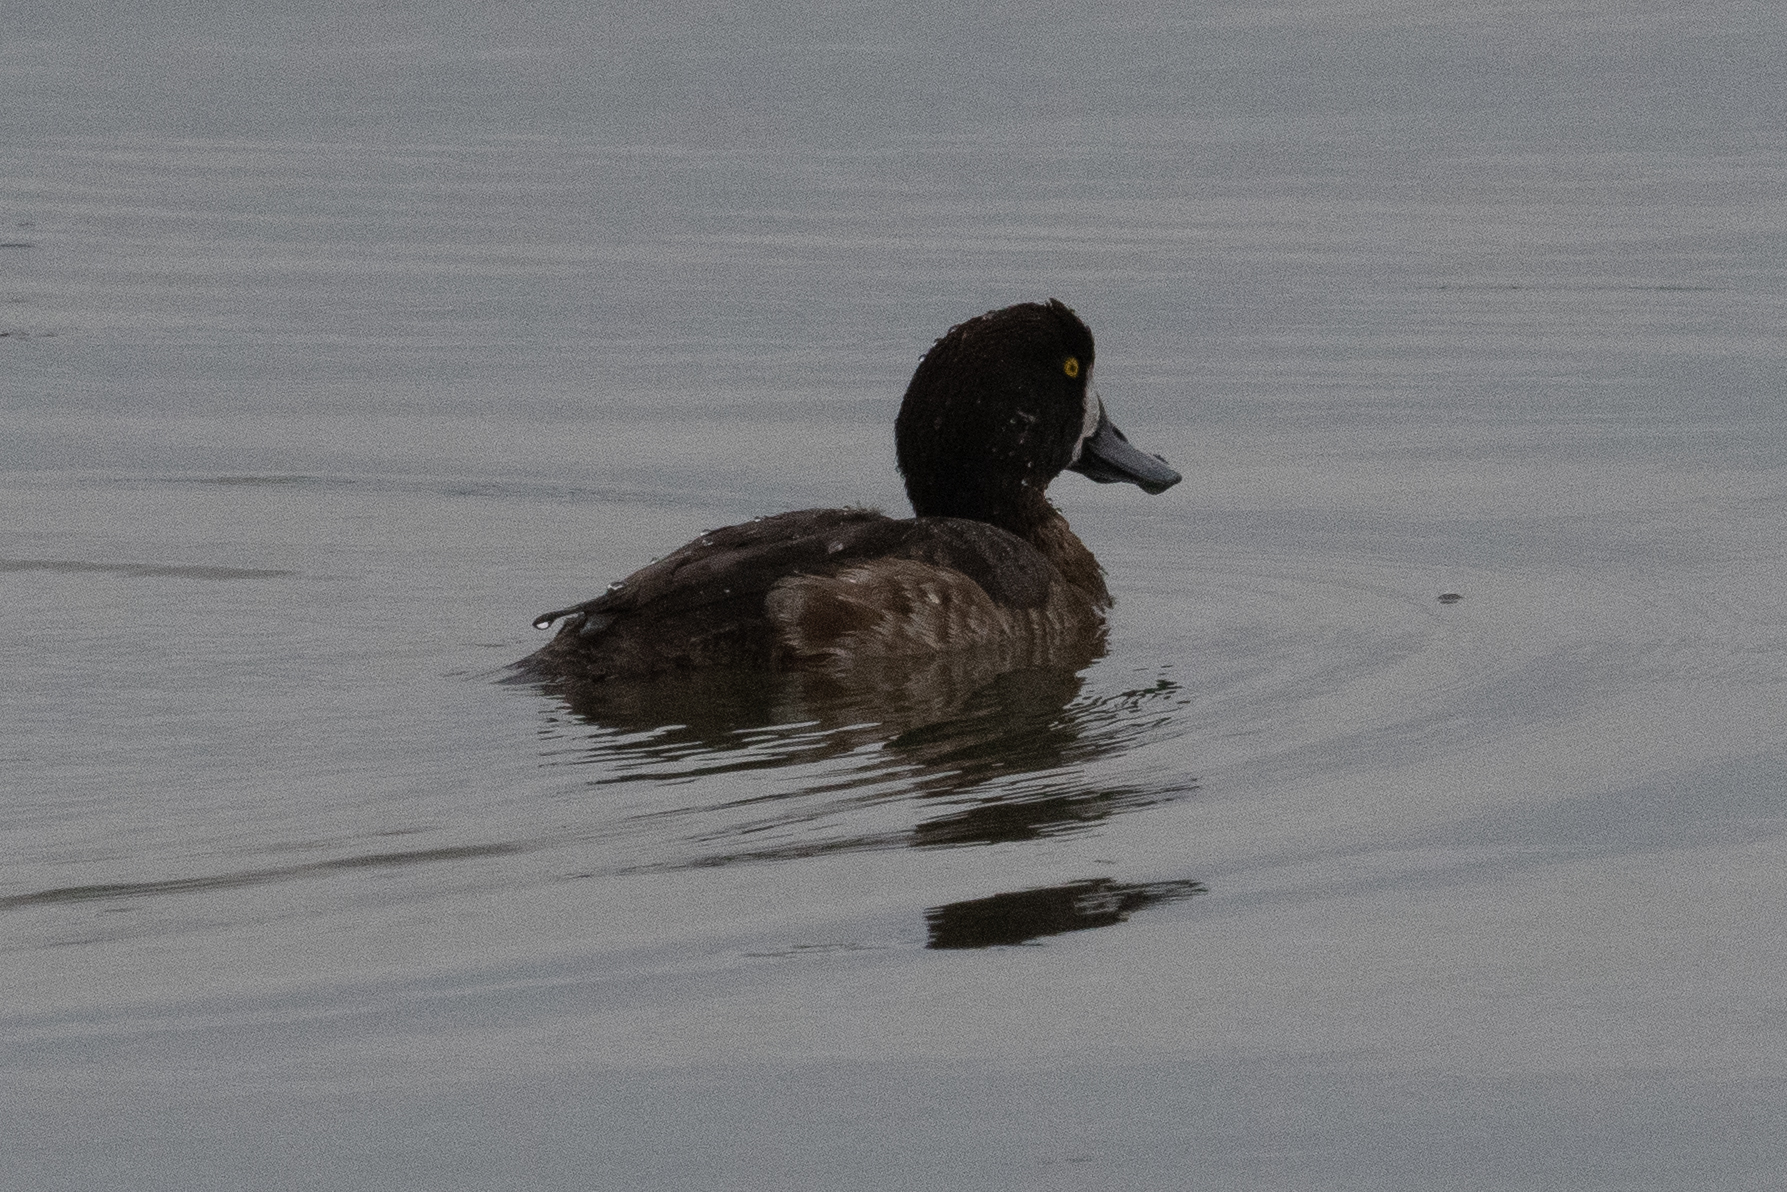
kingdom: Animalia
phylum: Chordata
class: Aves
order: Anseriformes
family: Anatidae
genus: Aythya
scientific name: Aythya marila
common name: Greater scaup
